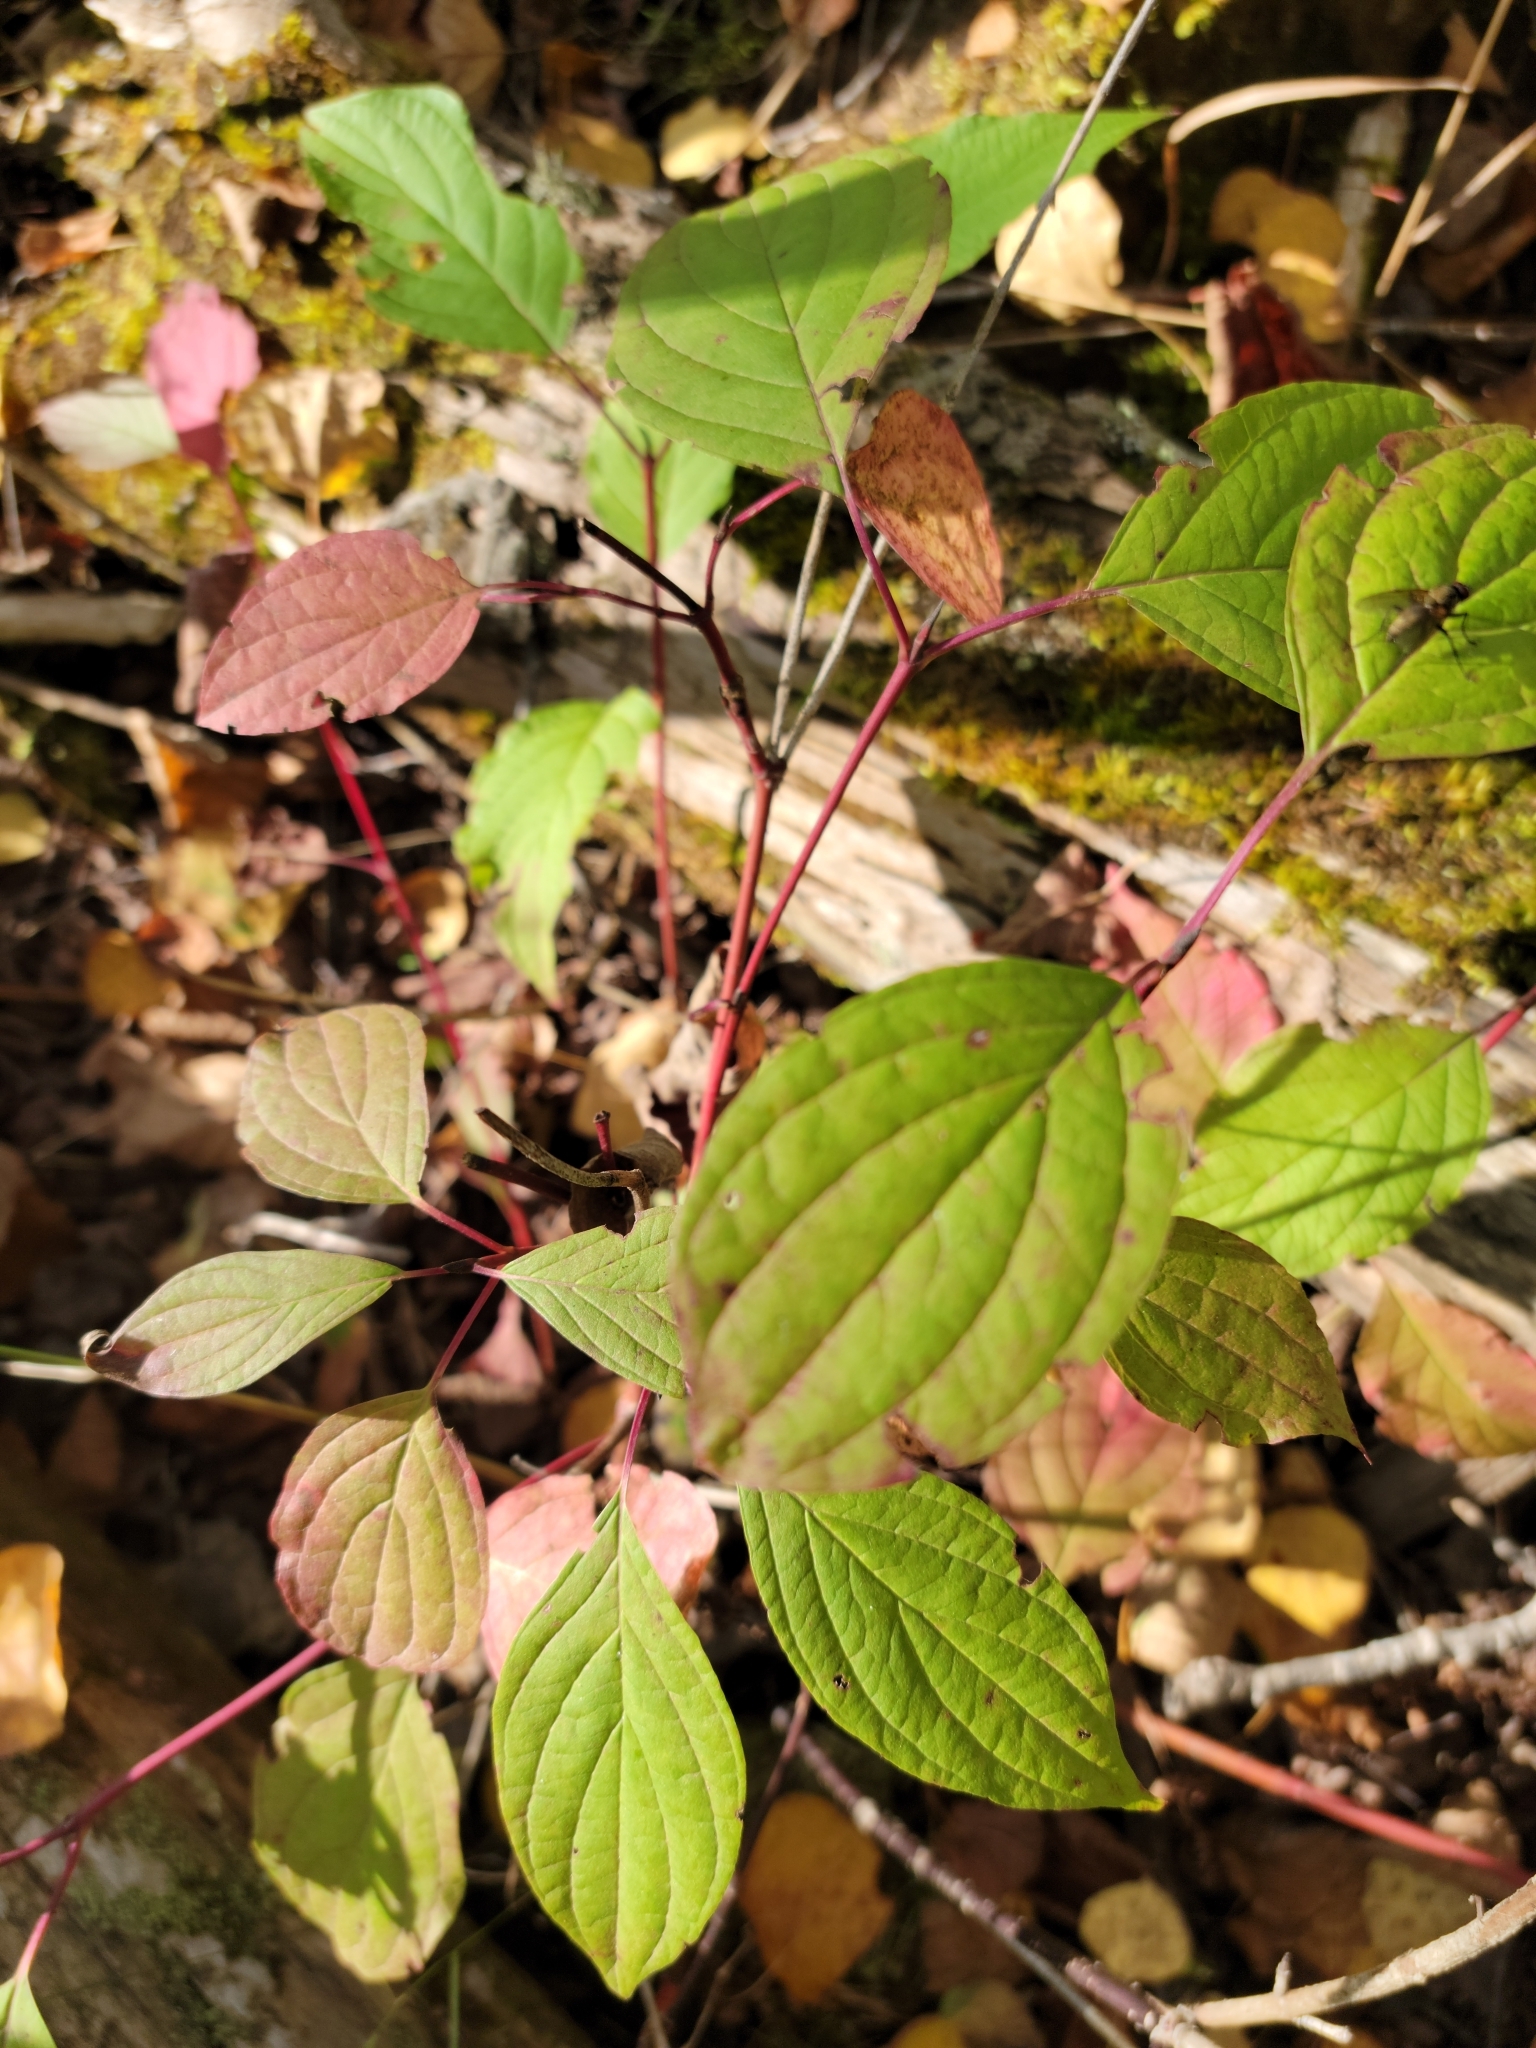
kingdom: Plantae
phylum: Tracheophyta
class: Magnoliopsida
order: Cornales
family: Cornaceae
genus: Cornus
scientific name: Cornus sericea
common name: Red-osier dogwood
